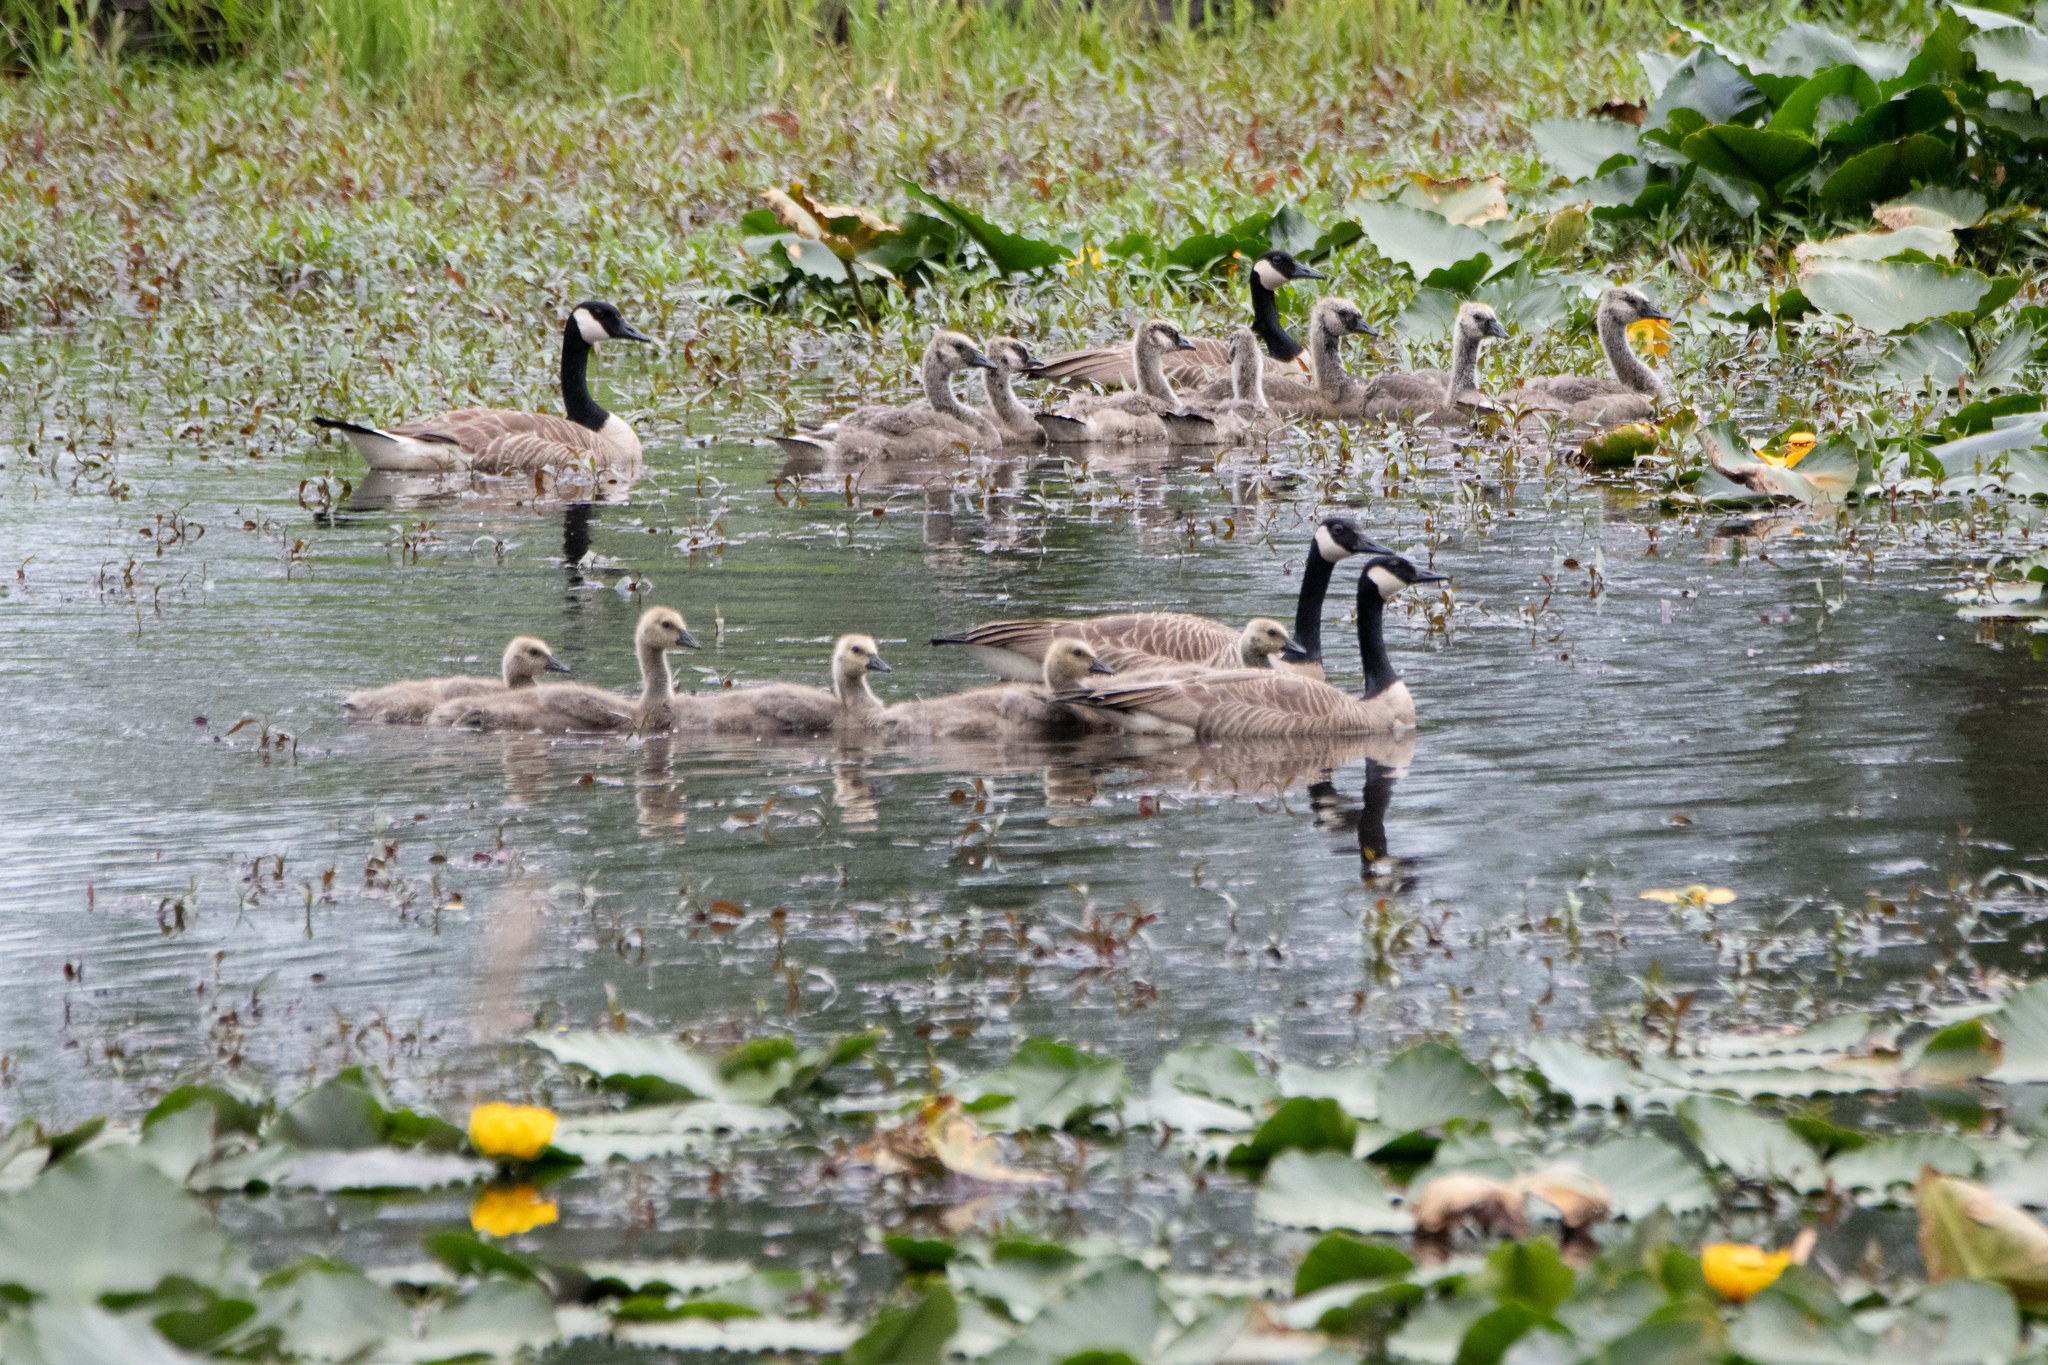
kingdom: Animalia
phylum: Chordata
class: Aves
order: Anseriformes
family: Anatidae
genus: Branta
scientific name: Branta canadensis
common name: Canada goose
